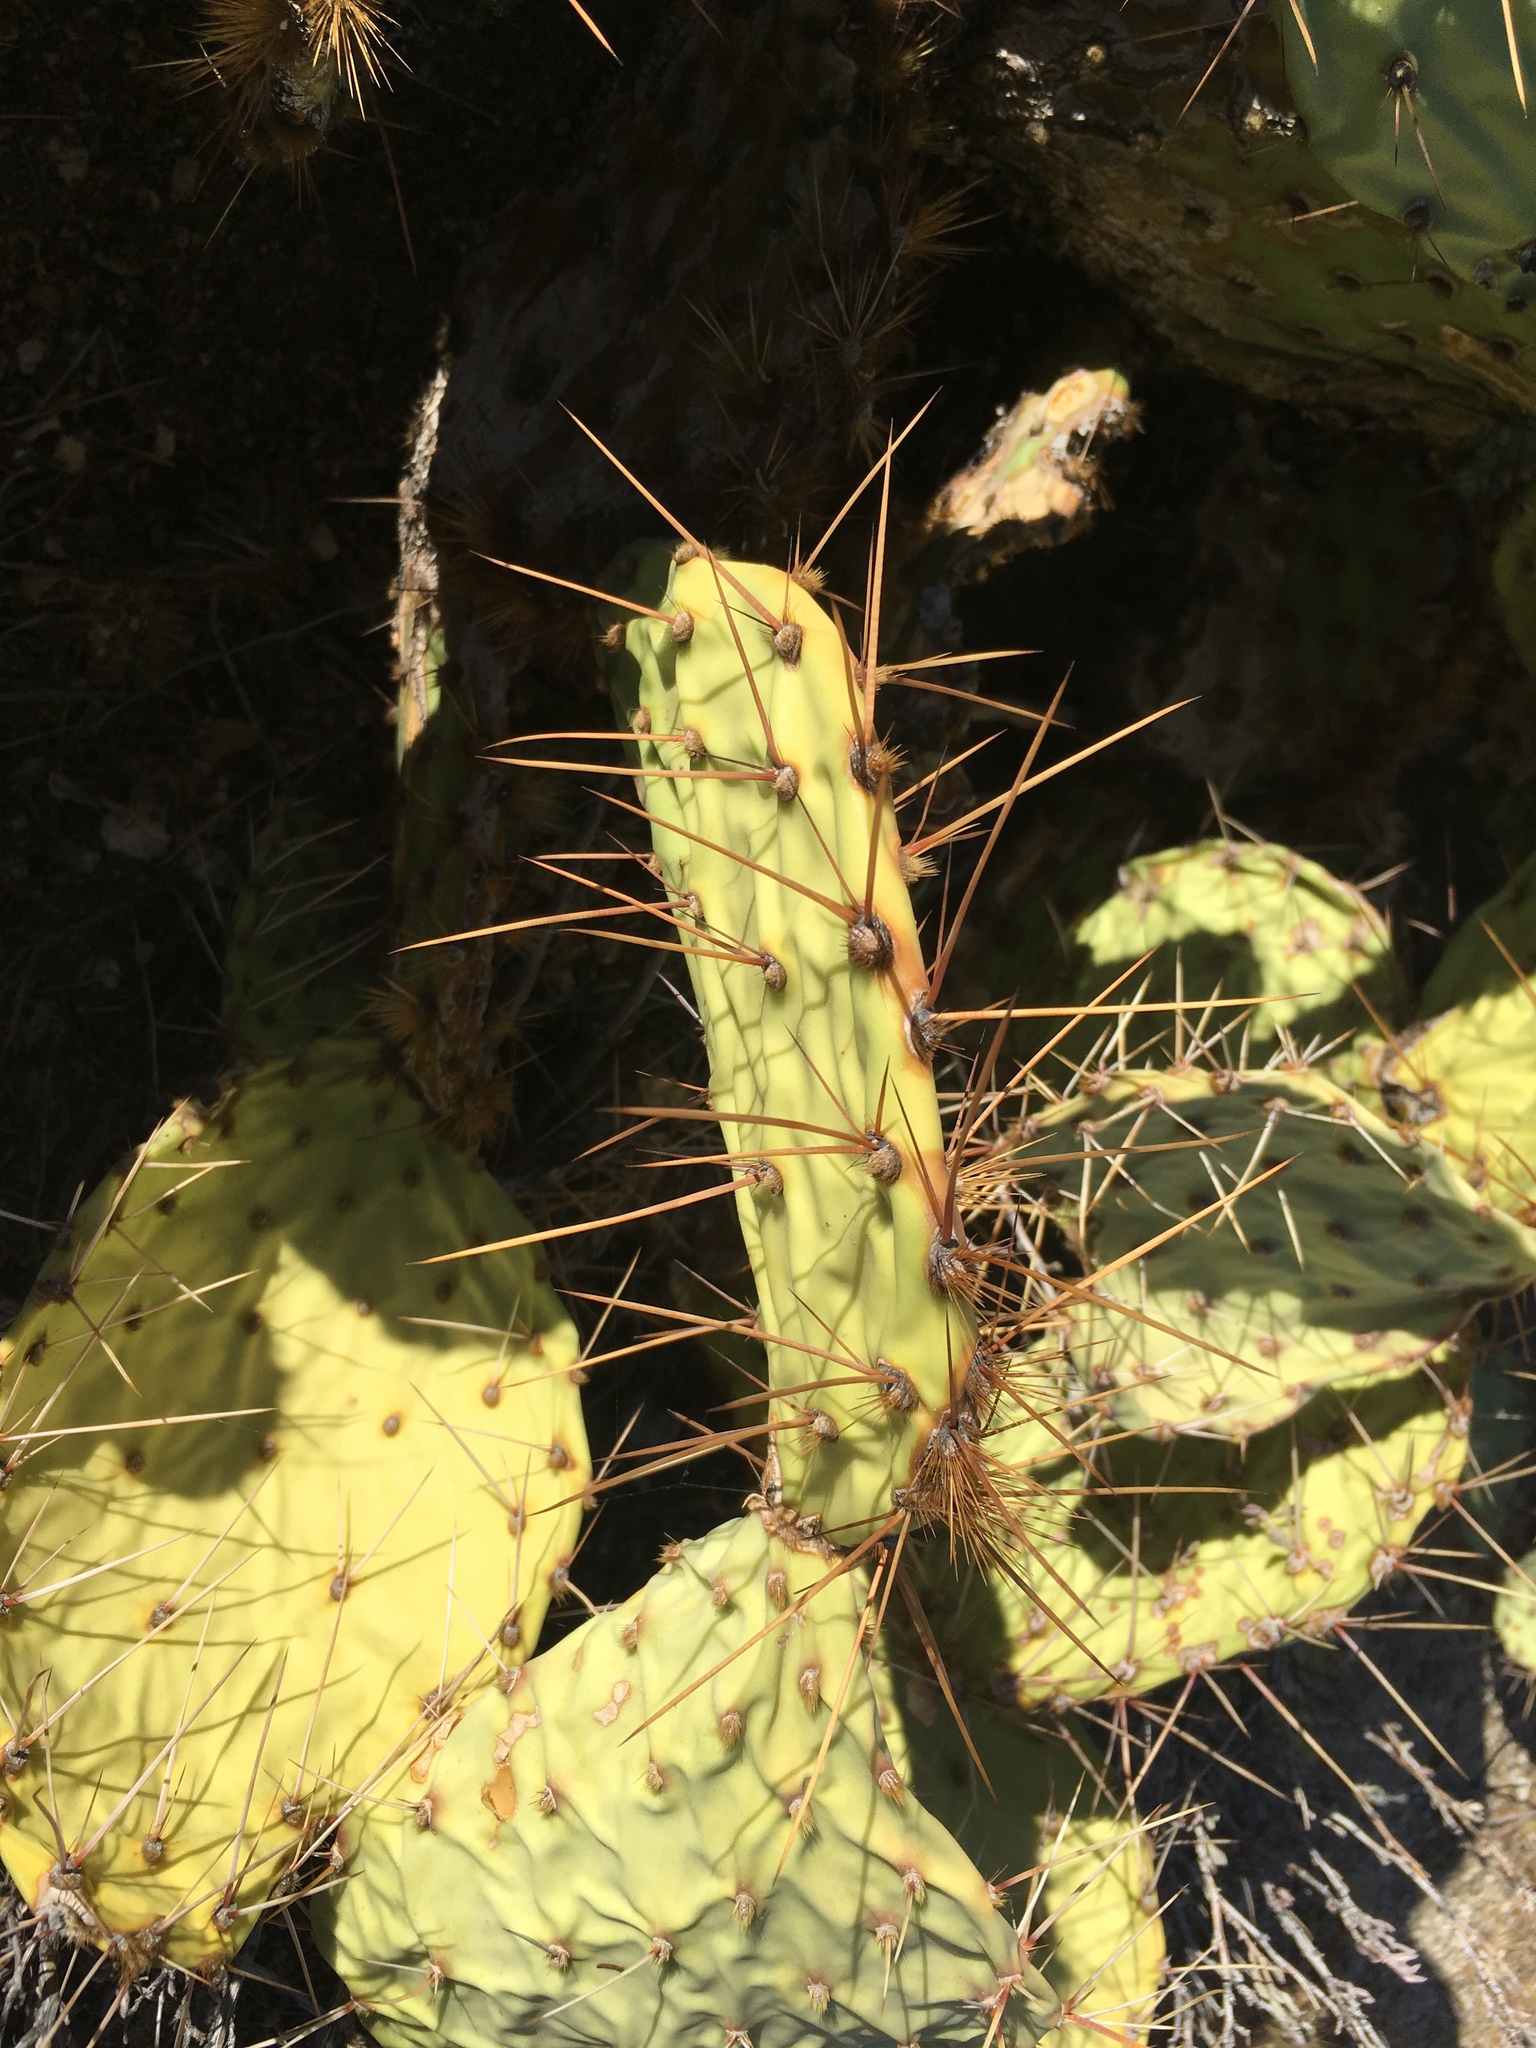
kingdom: Plantae
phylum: Tracheophyta
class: Magnoliopsida
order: Caryophyllales
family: Cactaceae
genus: Opuntia
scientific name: Opuntia phaeacantha
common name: New mexico prickly-pear
